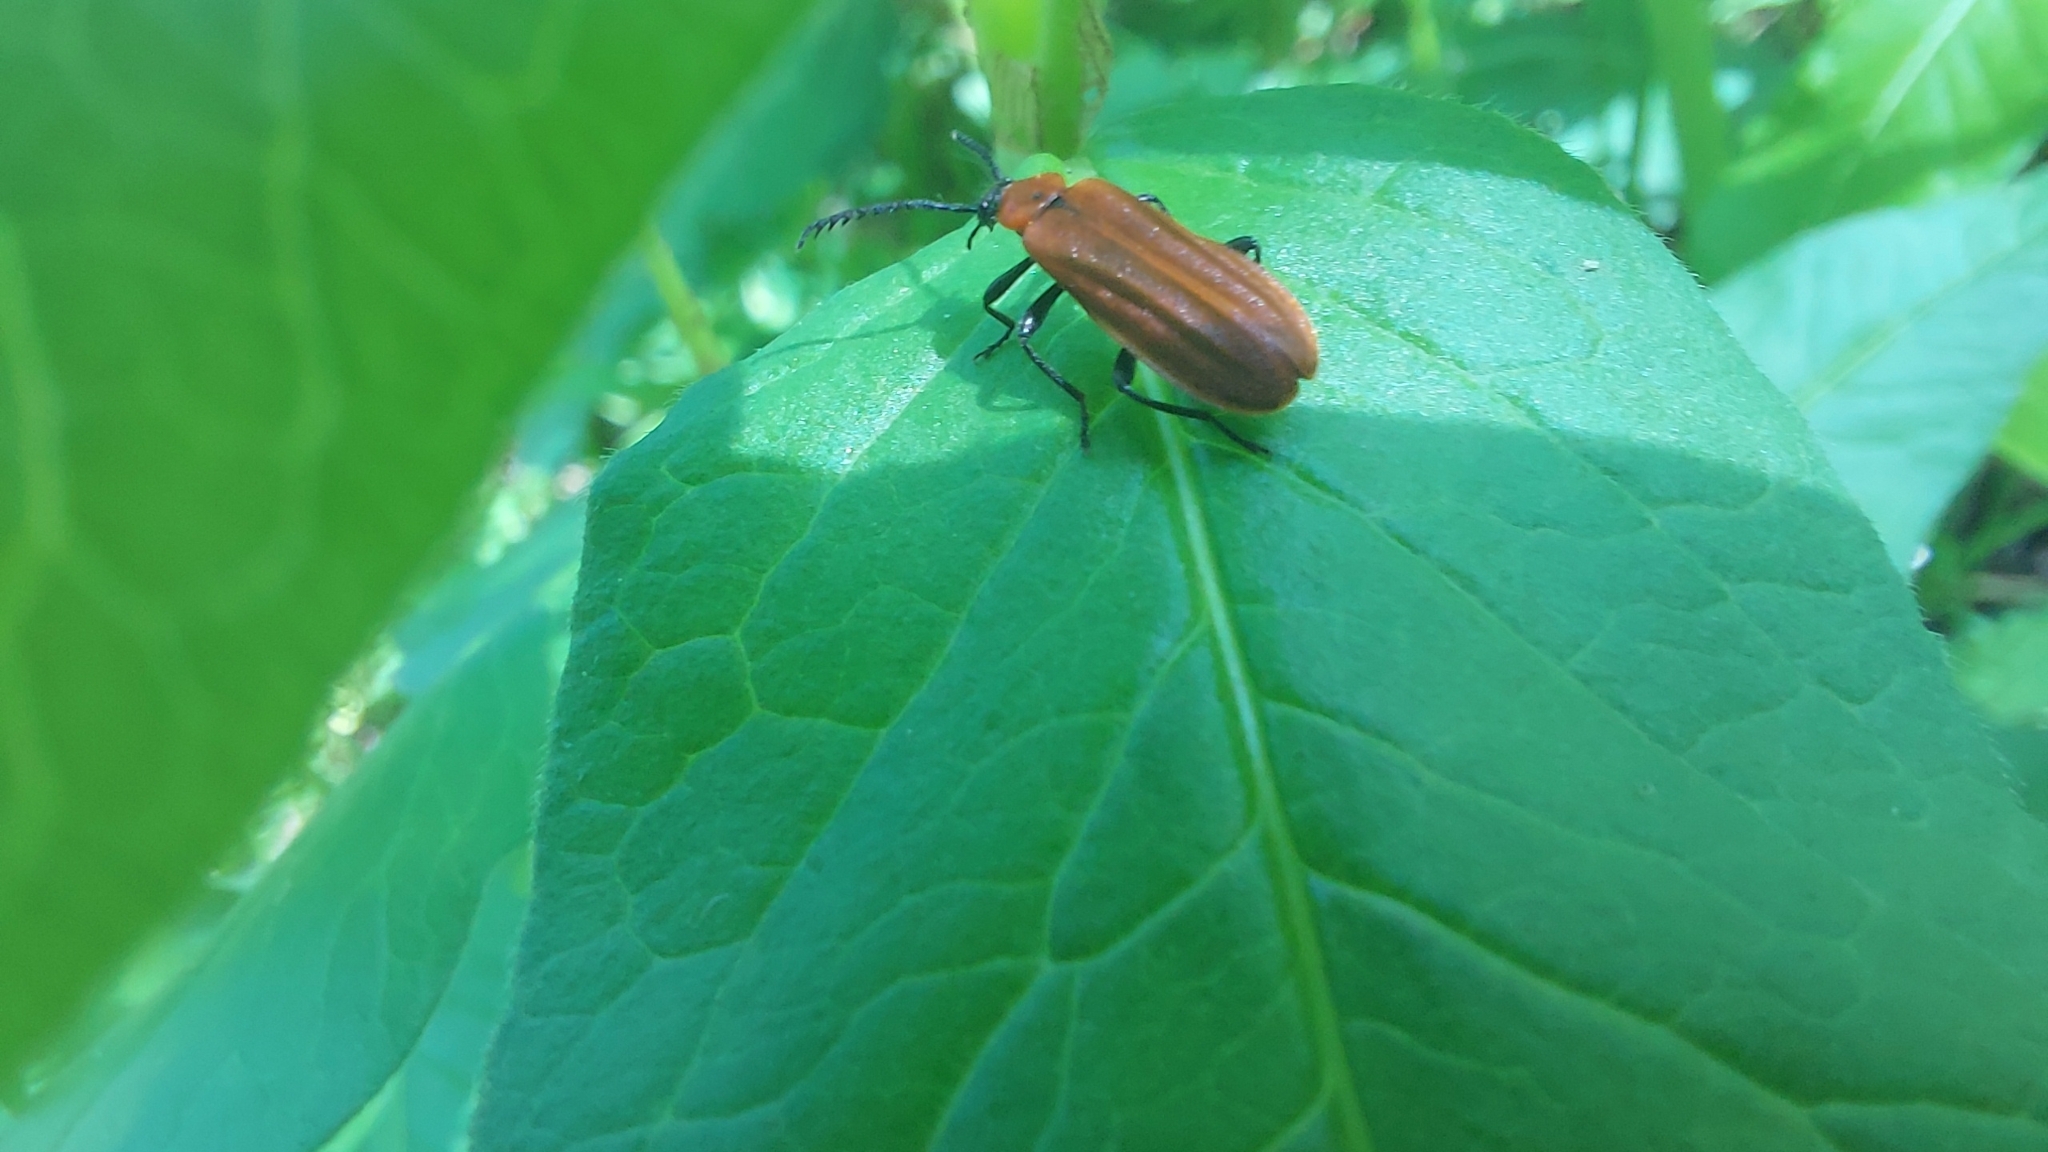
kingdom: Animalia
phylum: Arthropoda
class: Insecta
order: Coleoptera
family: Pyrochroidae
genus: Schizotus
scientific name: Schizotus pectinicornis
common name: Scarce cardinal beetle
